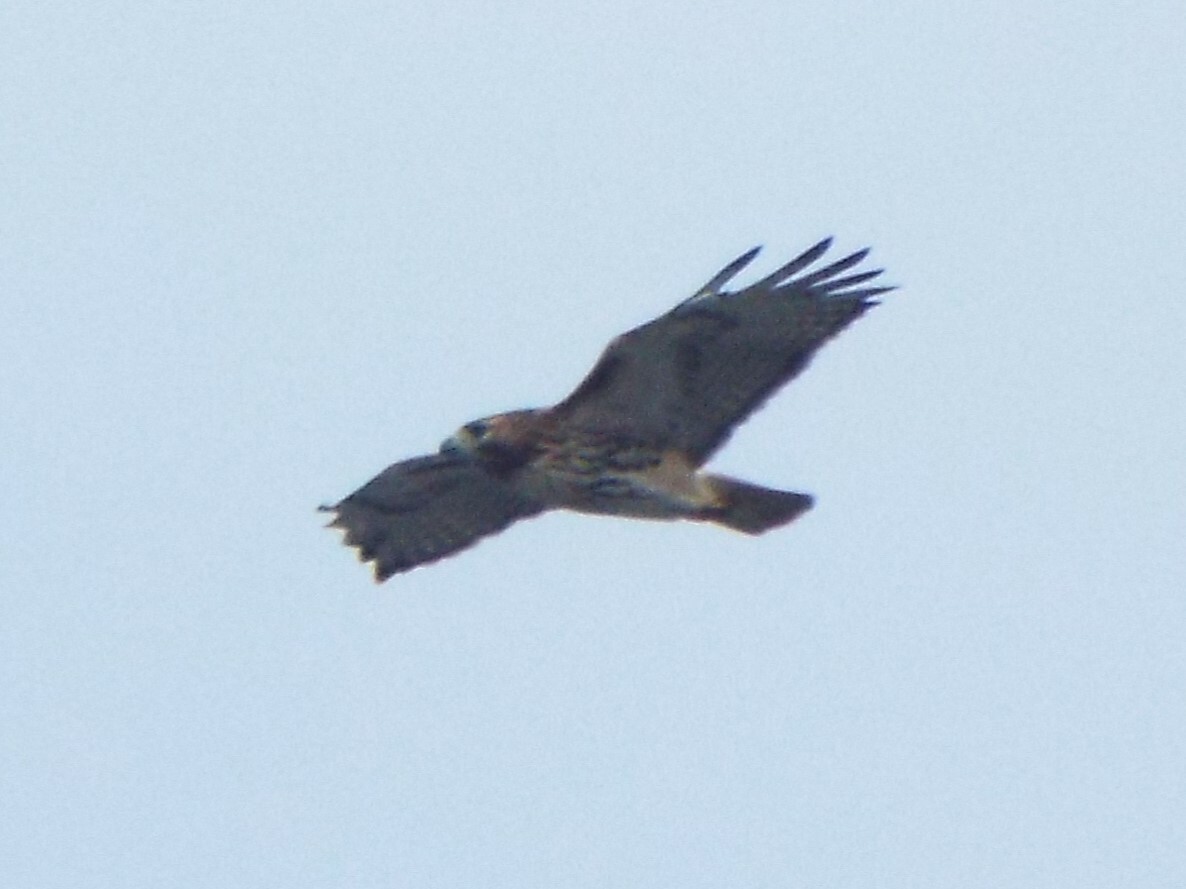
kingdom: Animalia
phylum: Chordata
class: Aves
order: Accipitriformes
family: Accipitridae
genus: Buteo
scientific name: Buteo jamaicensis
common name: Red-tailed hawk
